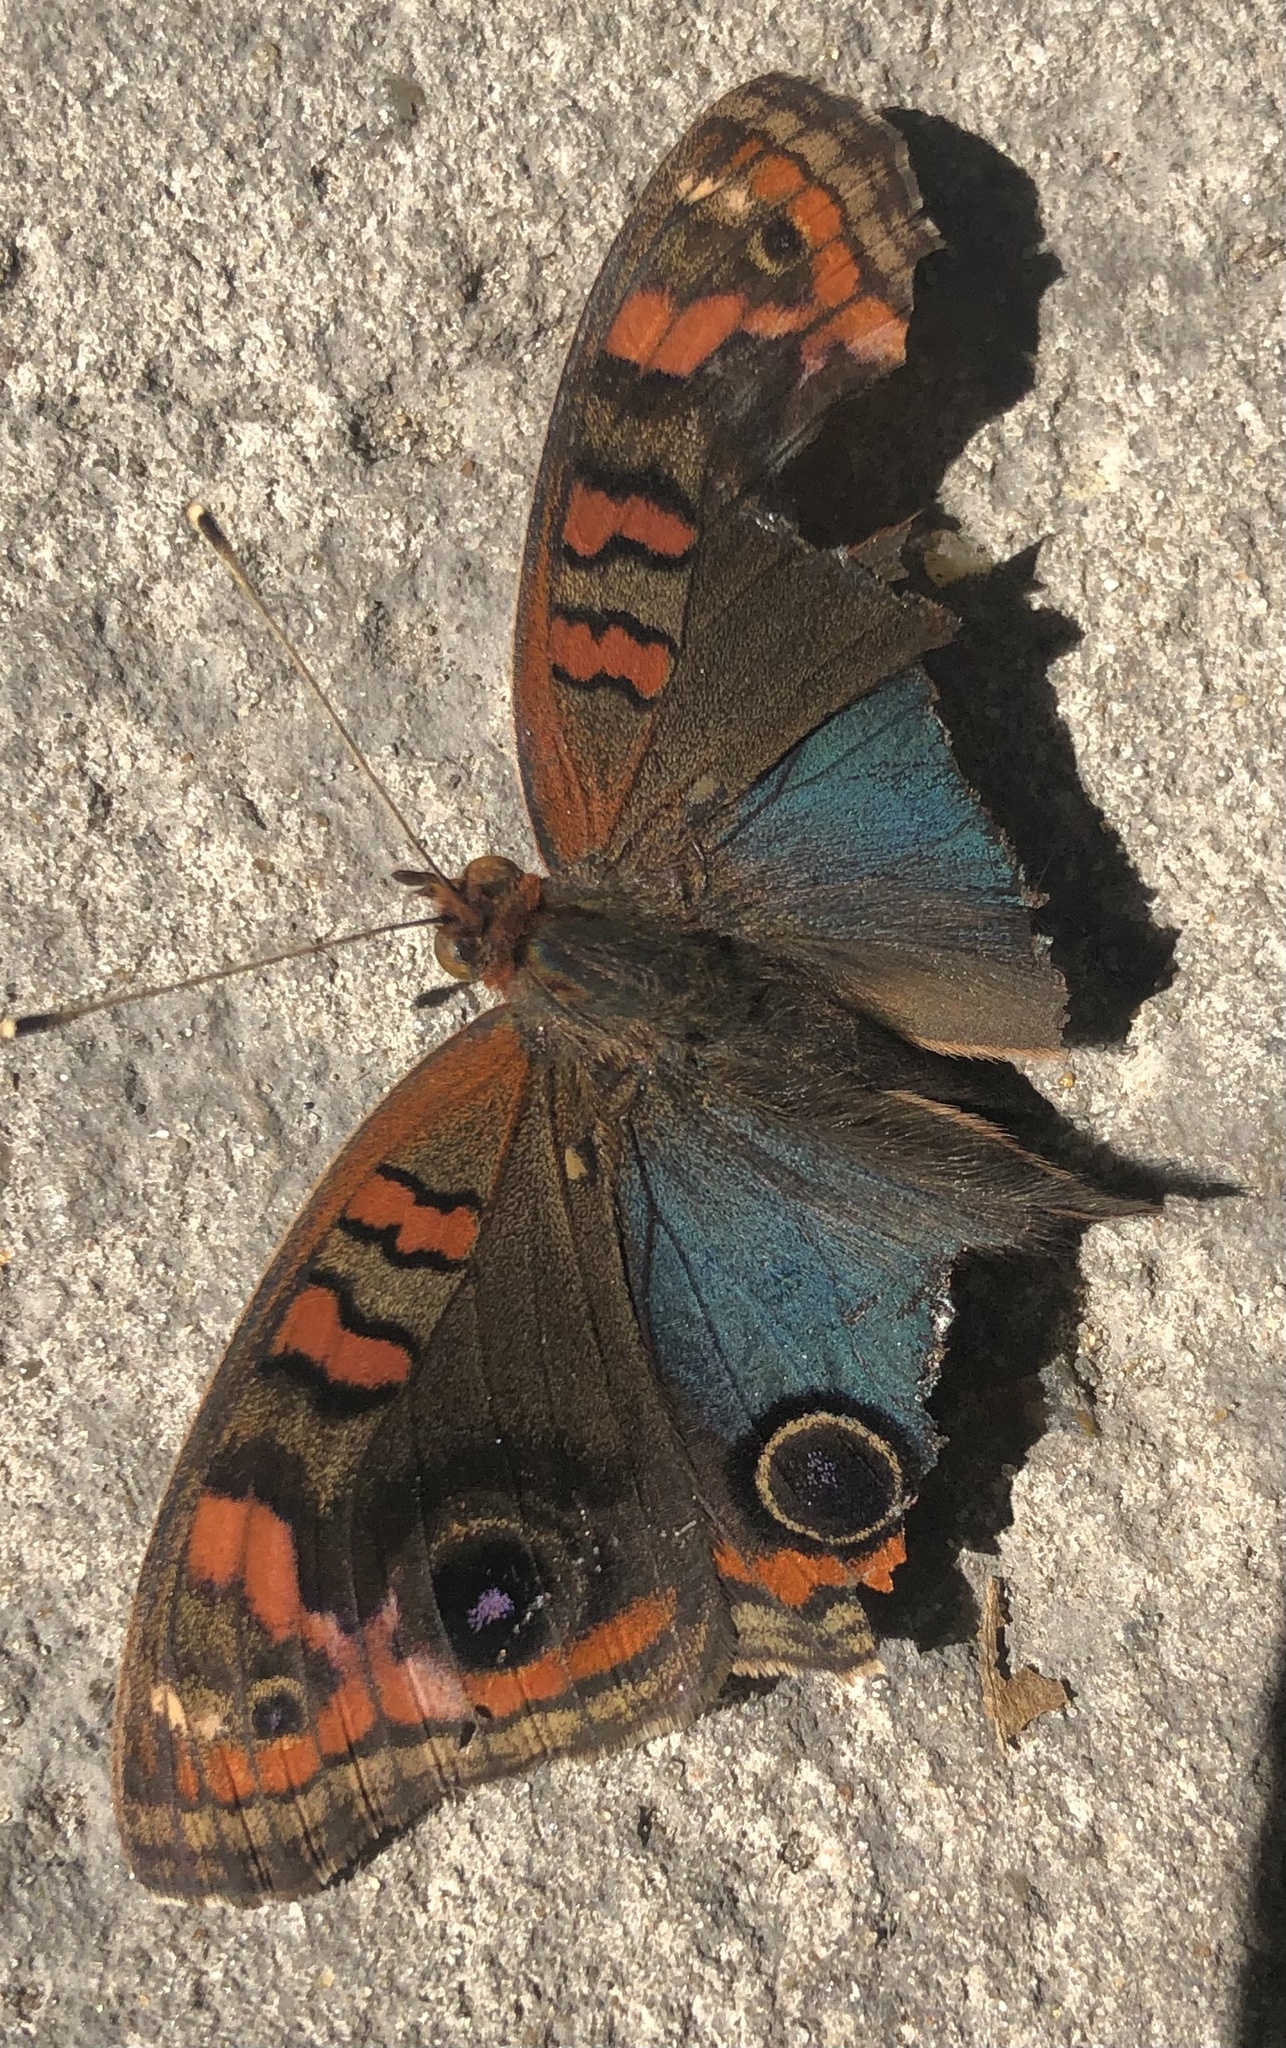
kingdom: Animalia
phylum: Arthropoda
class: Insecta
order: Lepidoptera
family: Nymphalidae
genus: Junonia
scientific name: Junonia lavinia
